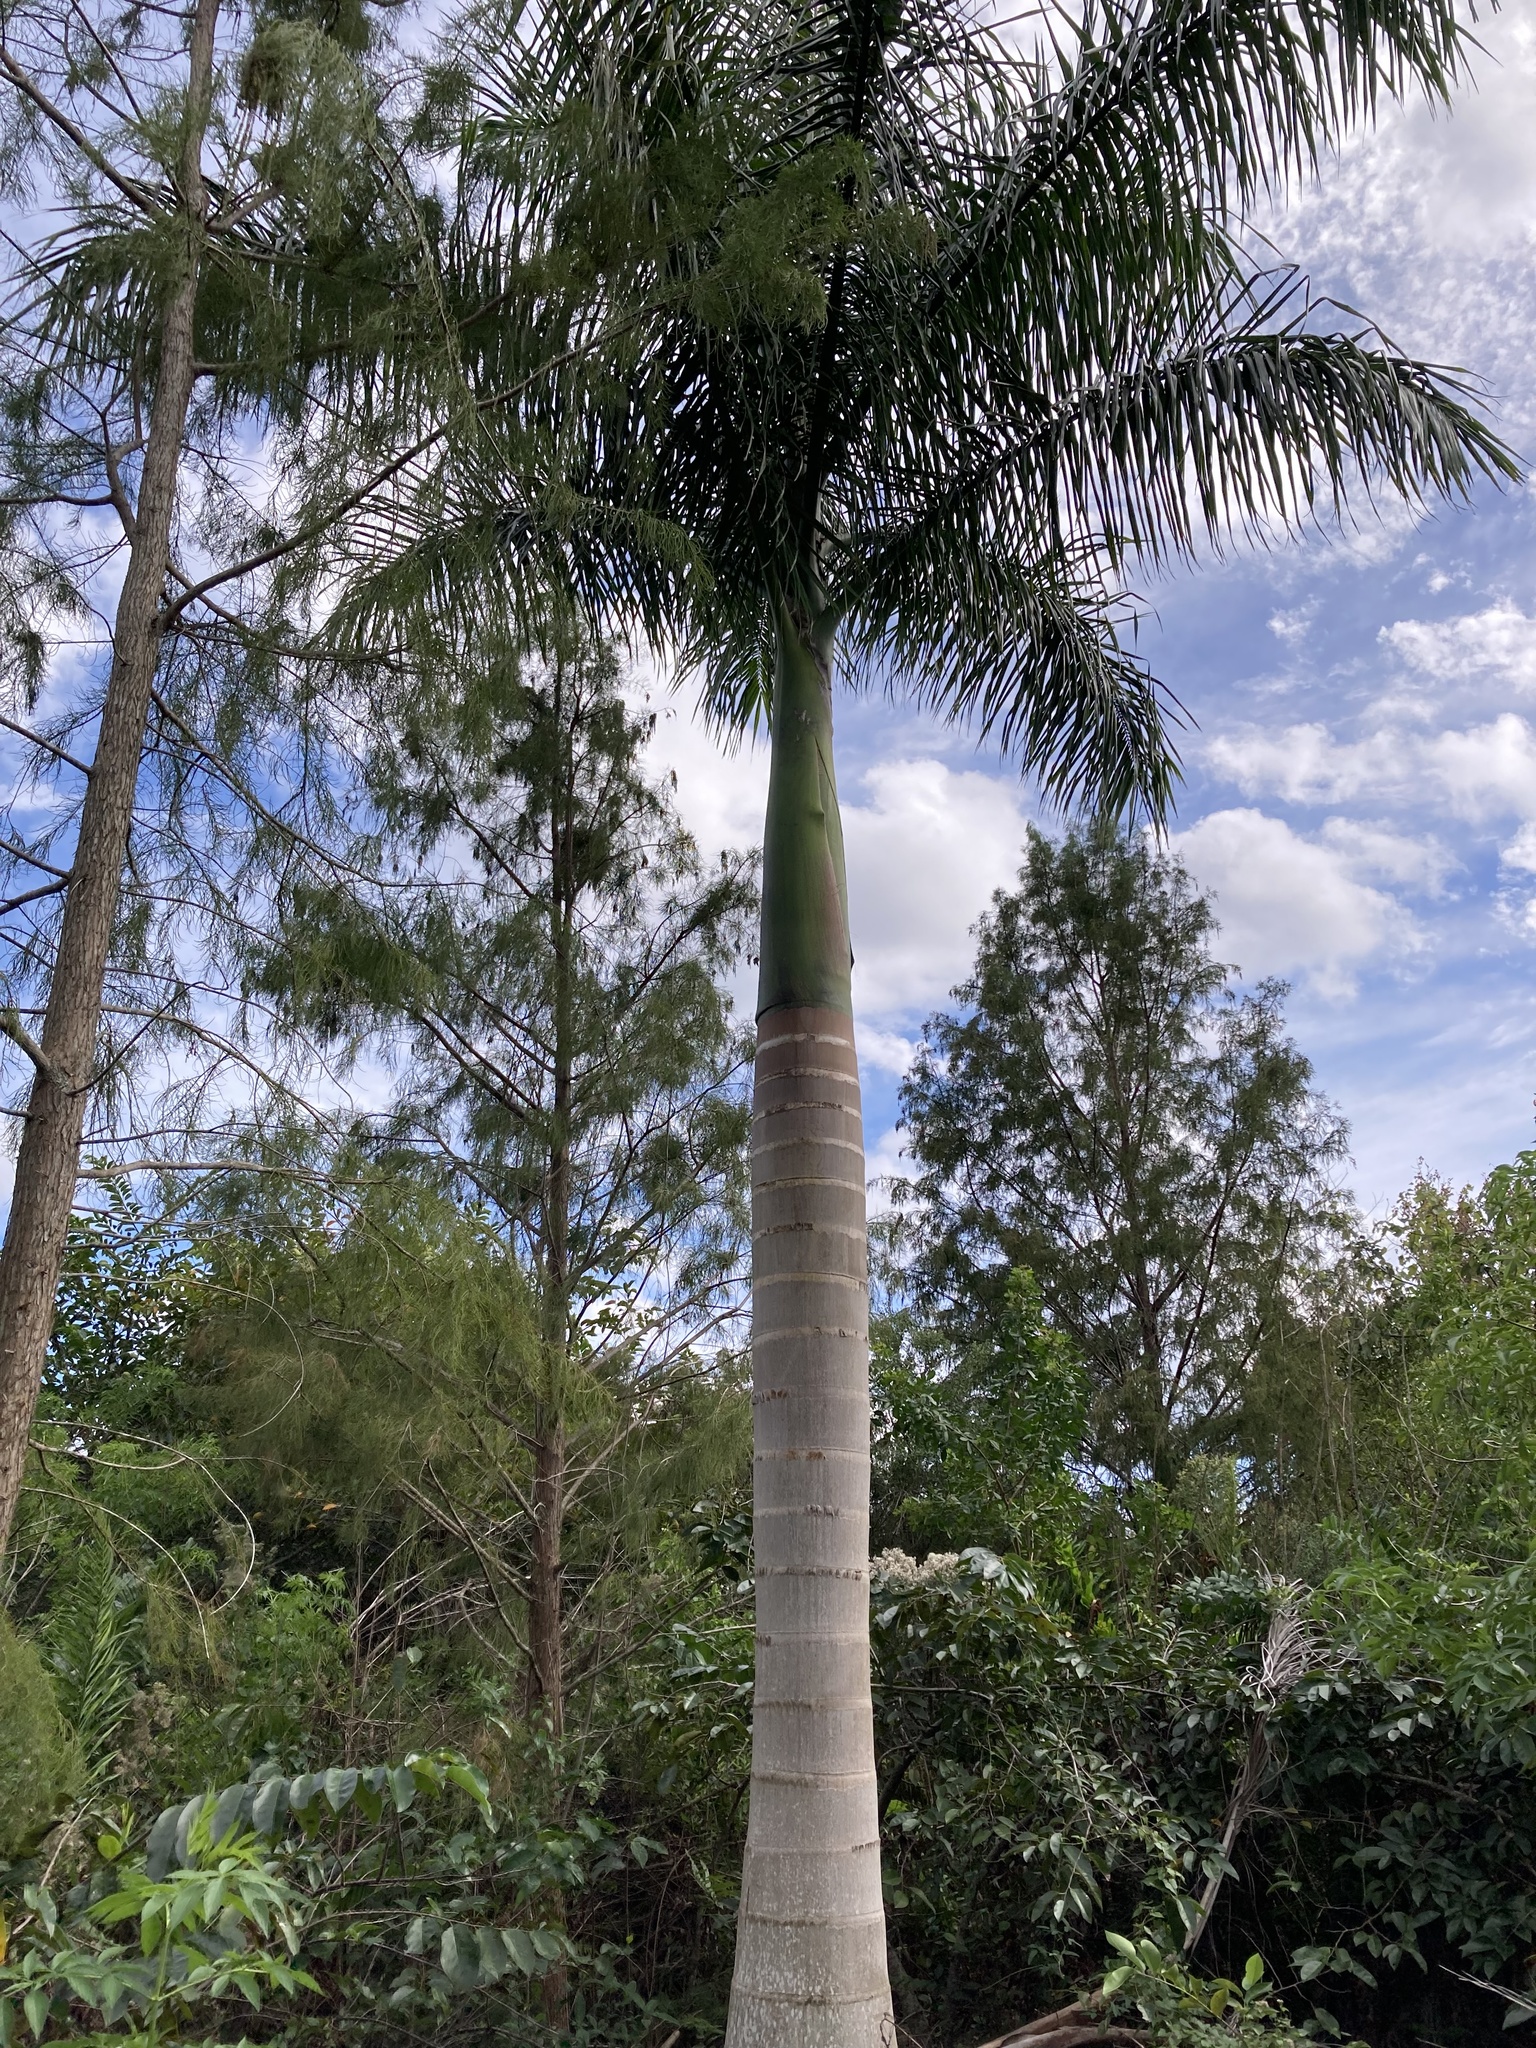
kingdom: Plantae
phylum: Tracheophyta
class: Liliopsida
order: Arecales
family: Arecaceae
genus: Roystonea
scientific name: Roystonea regia
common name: Florida royal palm
